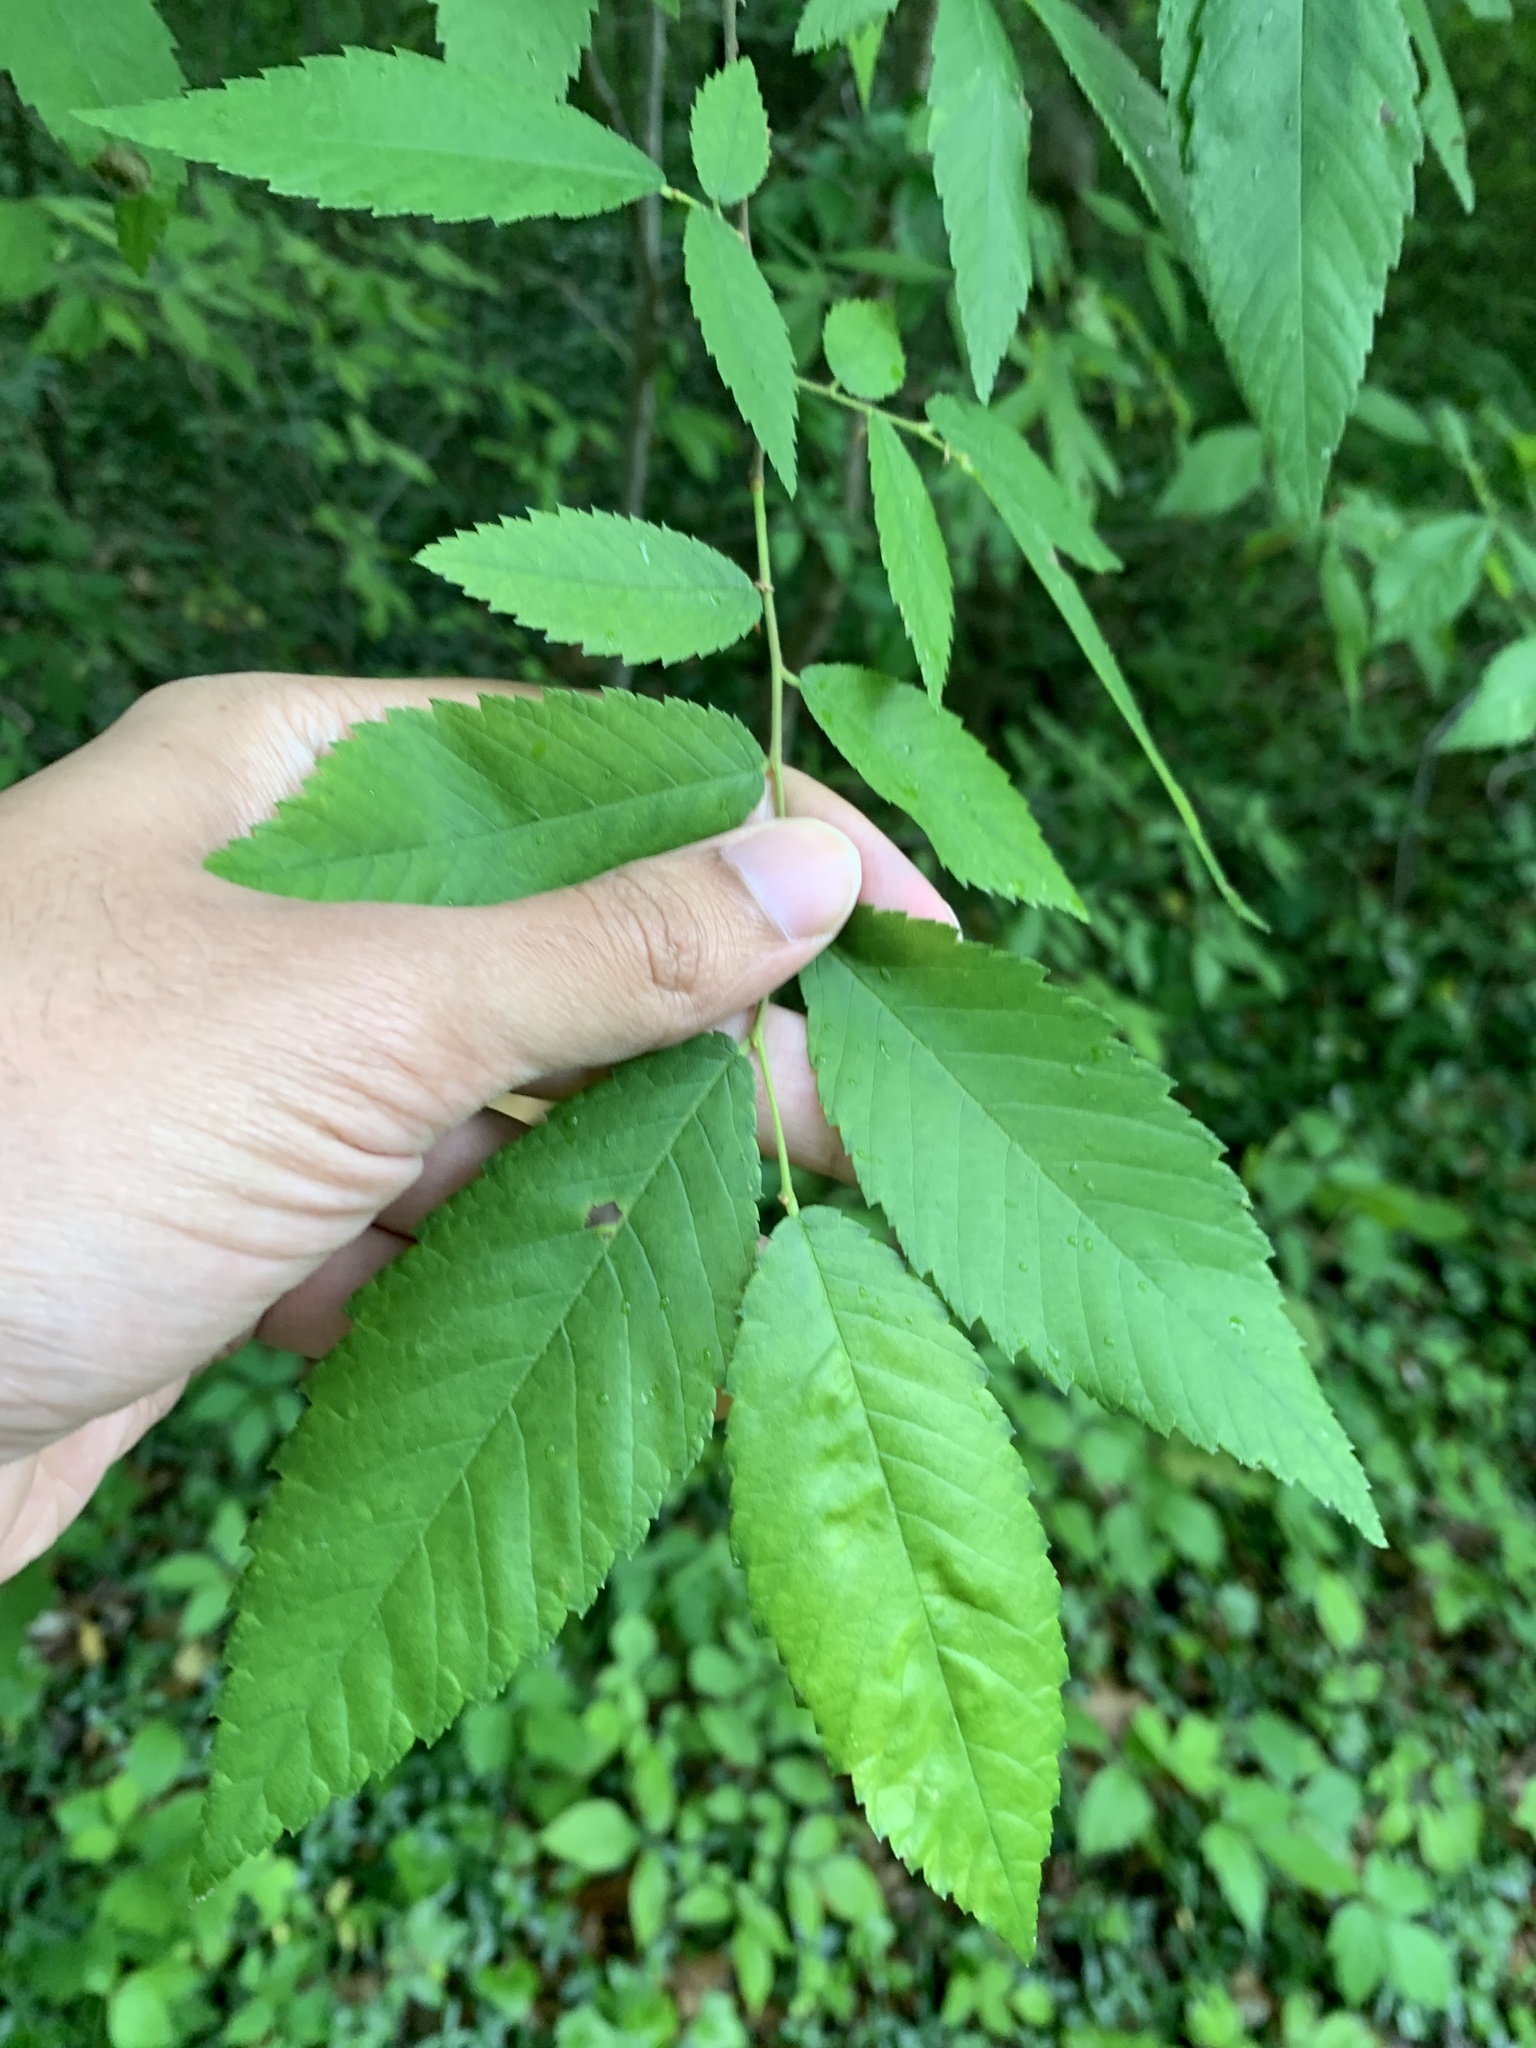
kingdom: Plantae
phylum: Tracheophyta
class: Magnoliopsida
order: Rosales
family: Ulmaceae
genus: Ulmus
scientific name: Ulmus alata
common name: Winged elm
